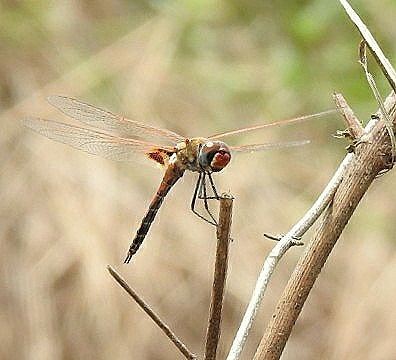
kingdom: Animalia
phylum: Arthropoda
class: Insecta
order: Odonata
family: Libellulidae
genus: Tramea
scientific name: Tramea basilaris
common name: Keyhole glider
